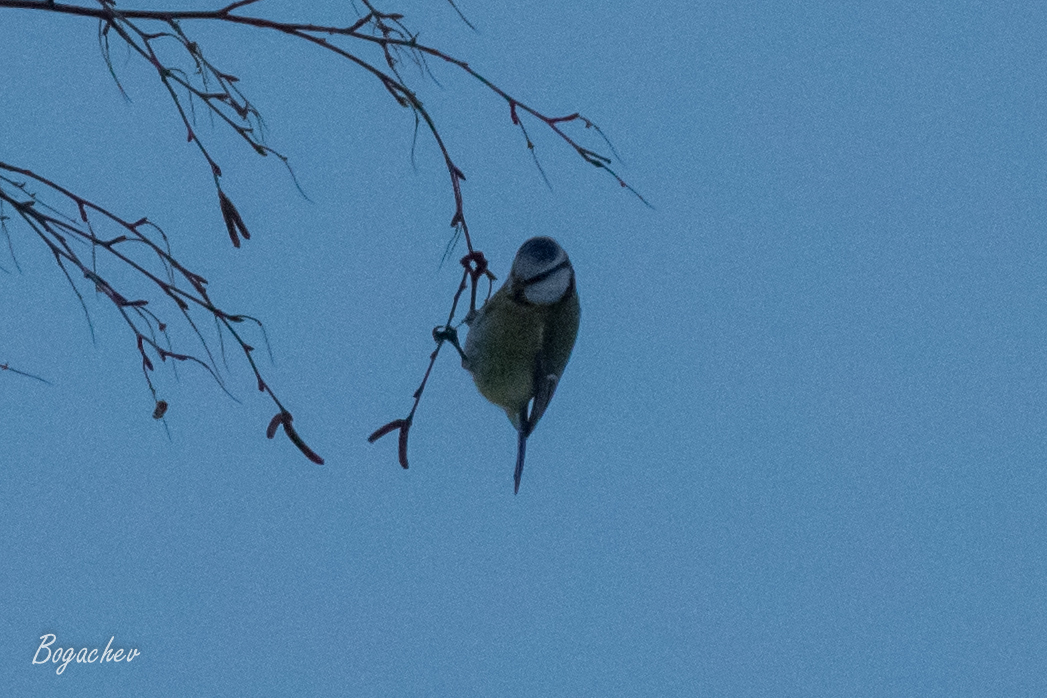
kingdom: Animalia
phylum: Chordata
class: Aves
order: Passeriformes
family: Paridae
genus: Cyanistes
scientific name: Cyanistes caeruleus
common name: Eurasian blue tit
